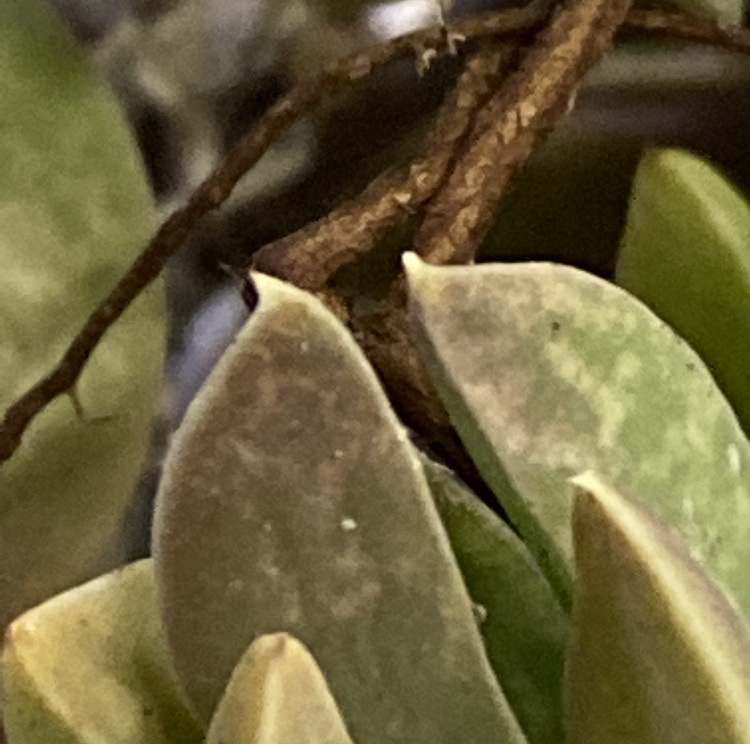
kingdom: Plantae
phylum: Tracheophyta
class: Magnoliopsida
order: Caryophyllales
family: Aizoaceae
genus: Delosperma
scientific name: Delosperma litorale
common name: Seaside delosperma
